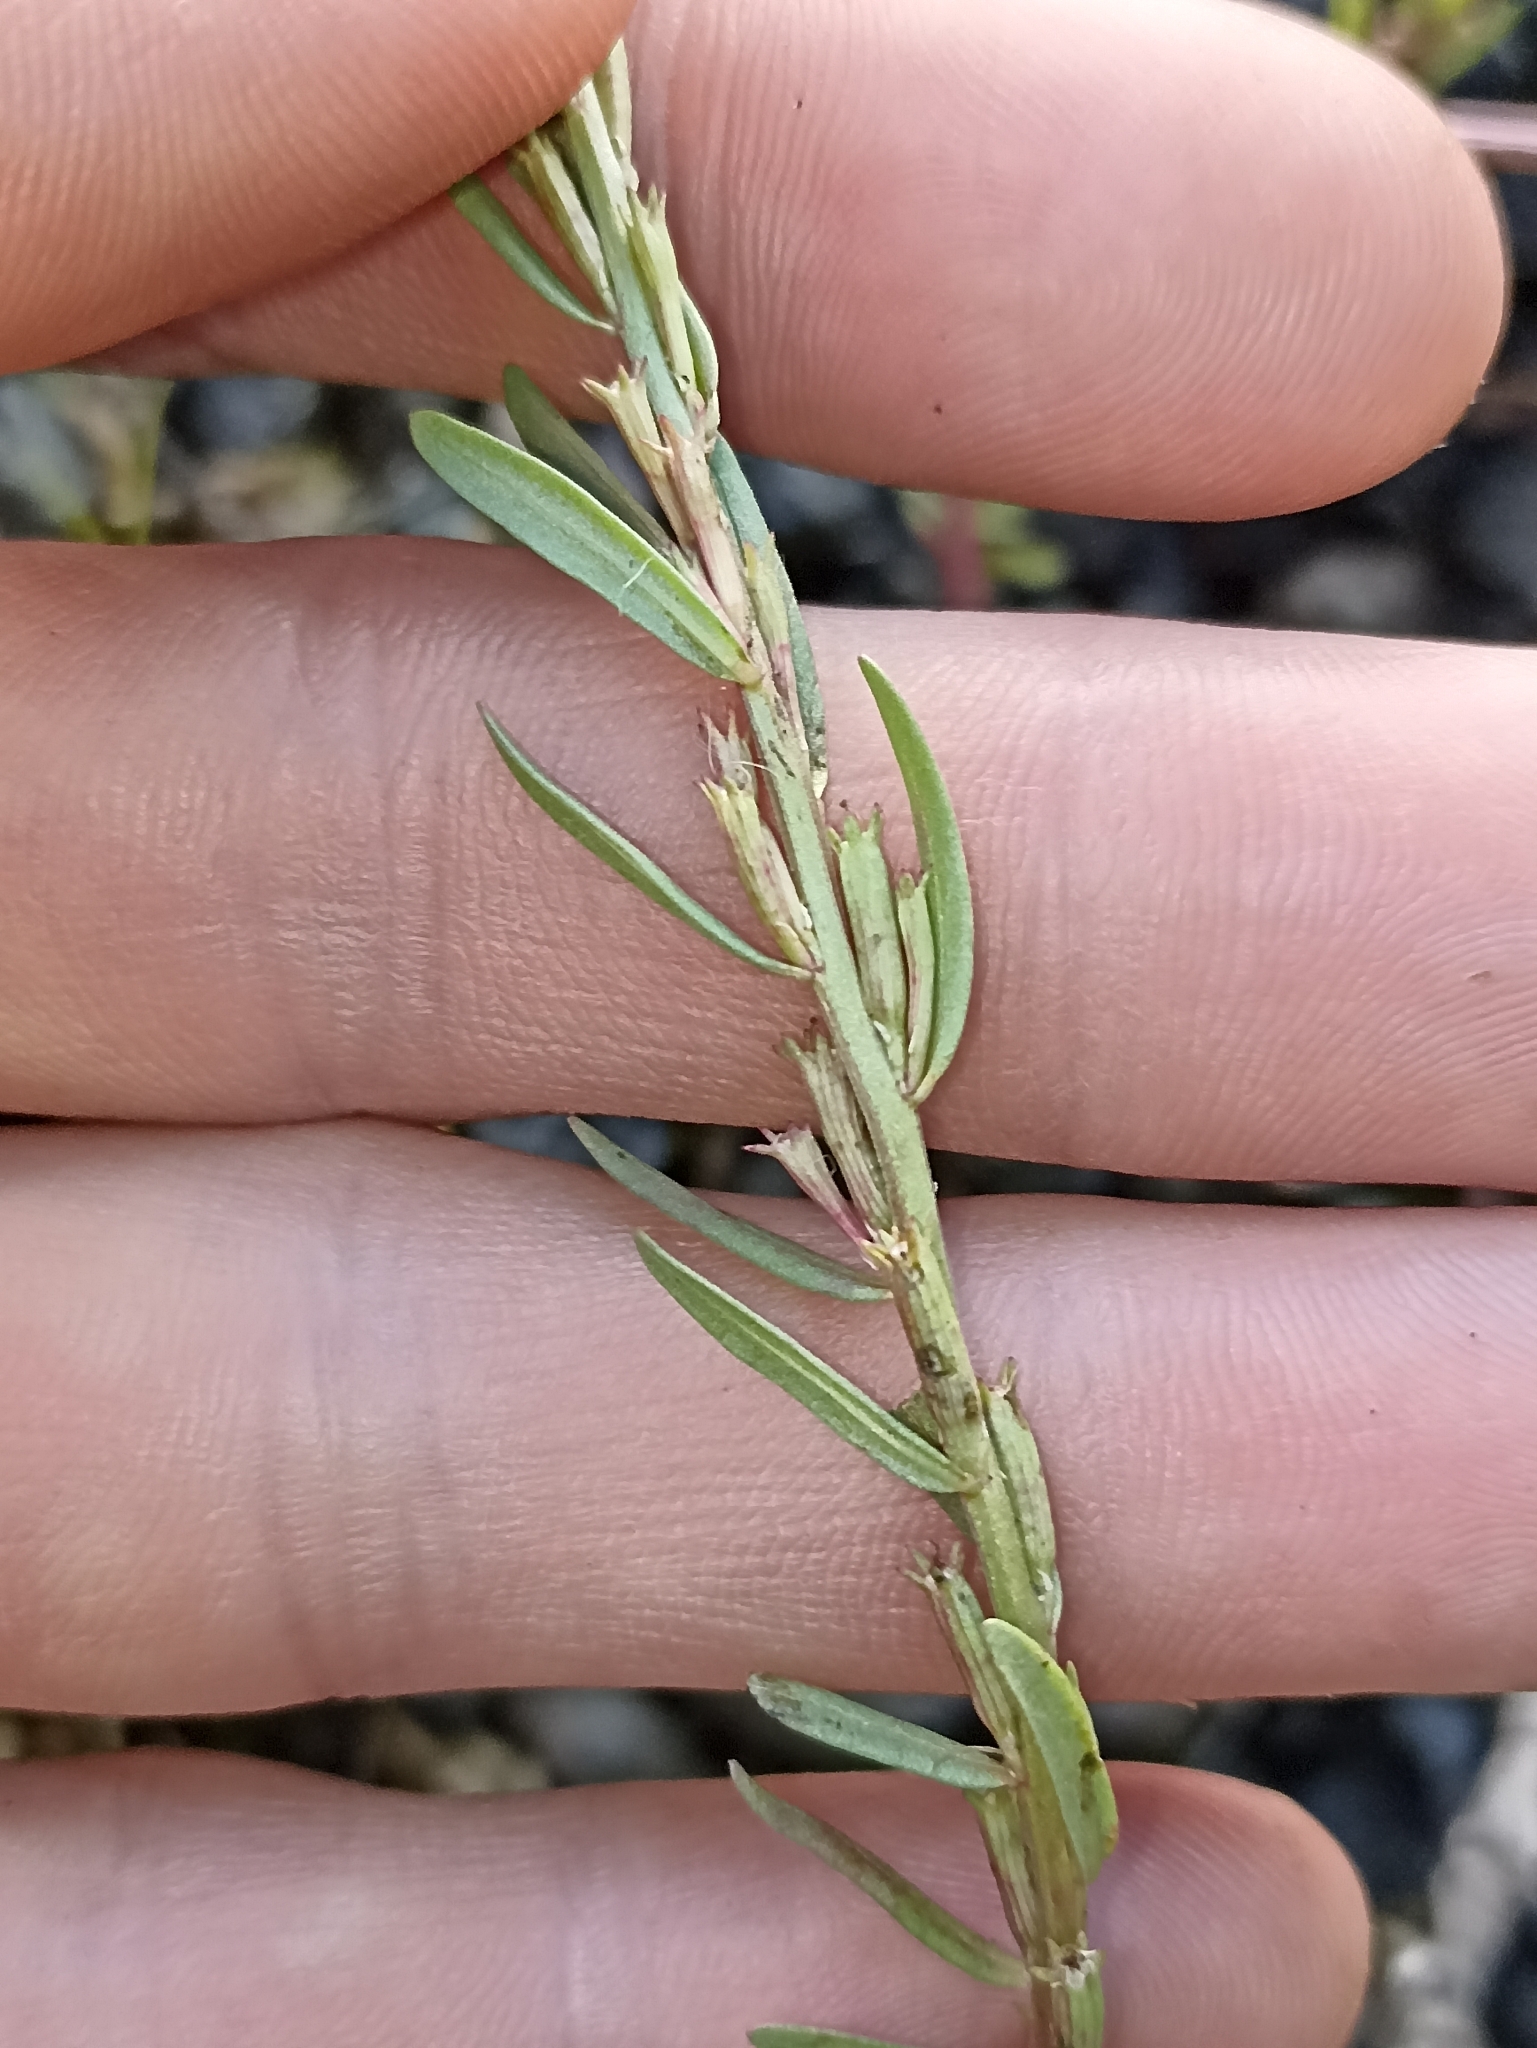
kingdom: Plantae
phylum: Tracheophyta
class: Magnoliopsida
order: Myrtales
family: Lythraceae
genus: Lythrum
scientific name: Lythrum hyssopifolia
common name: Grass-poly
